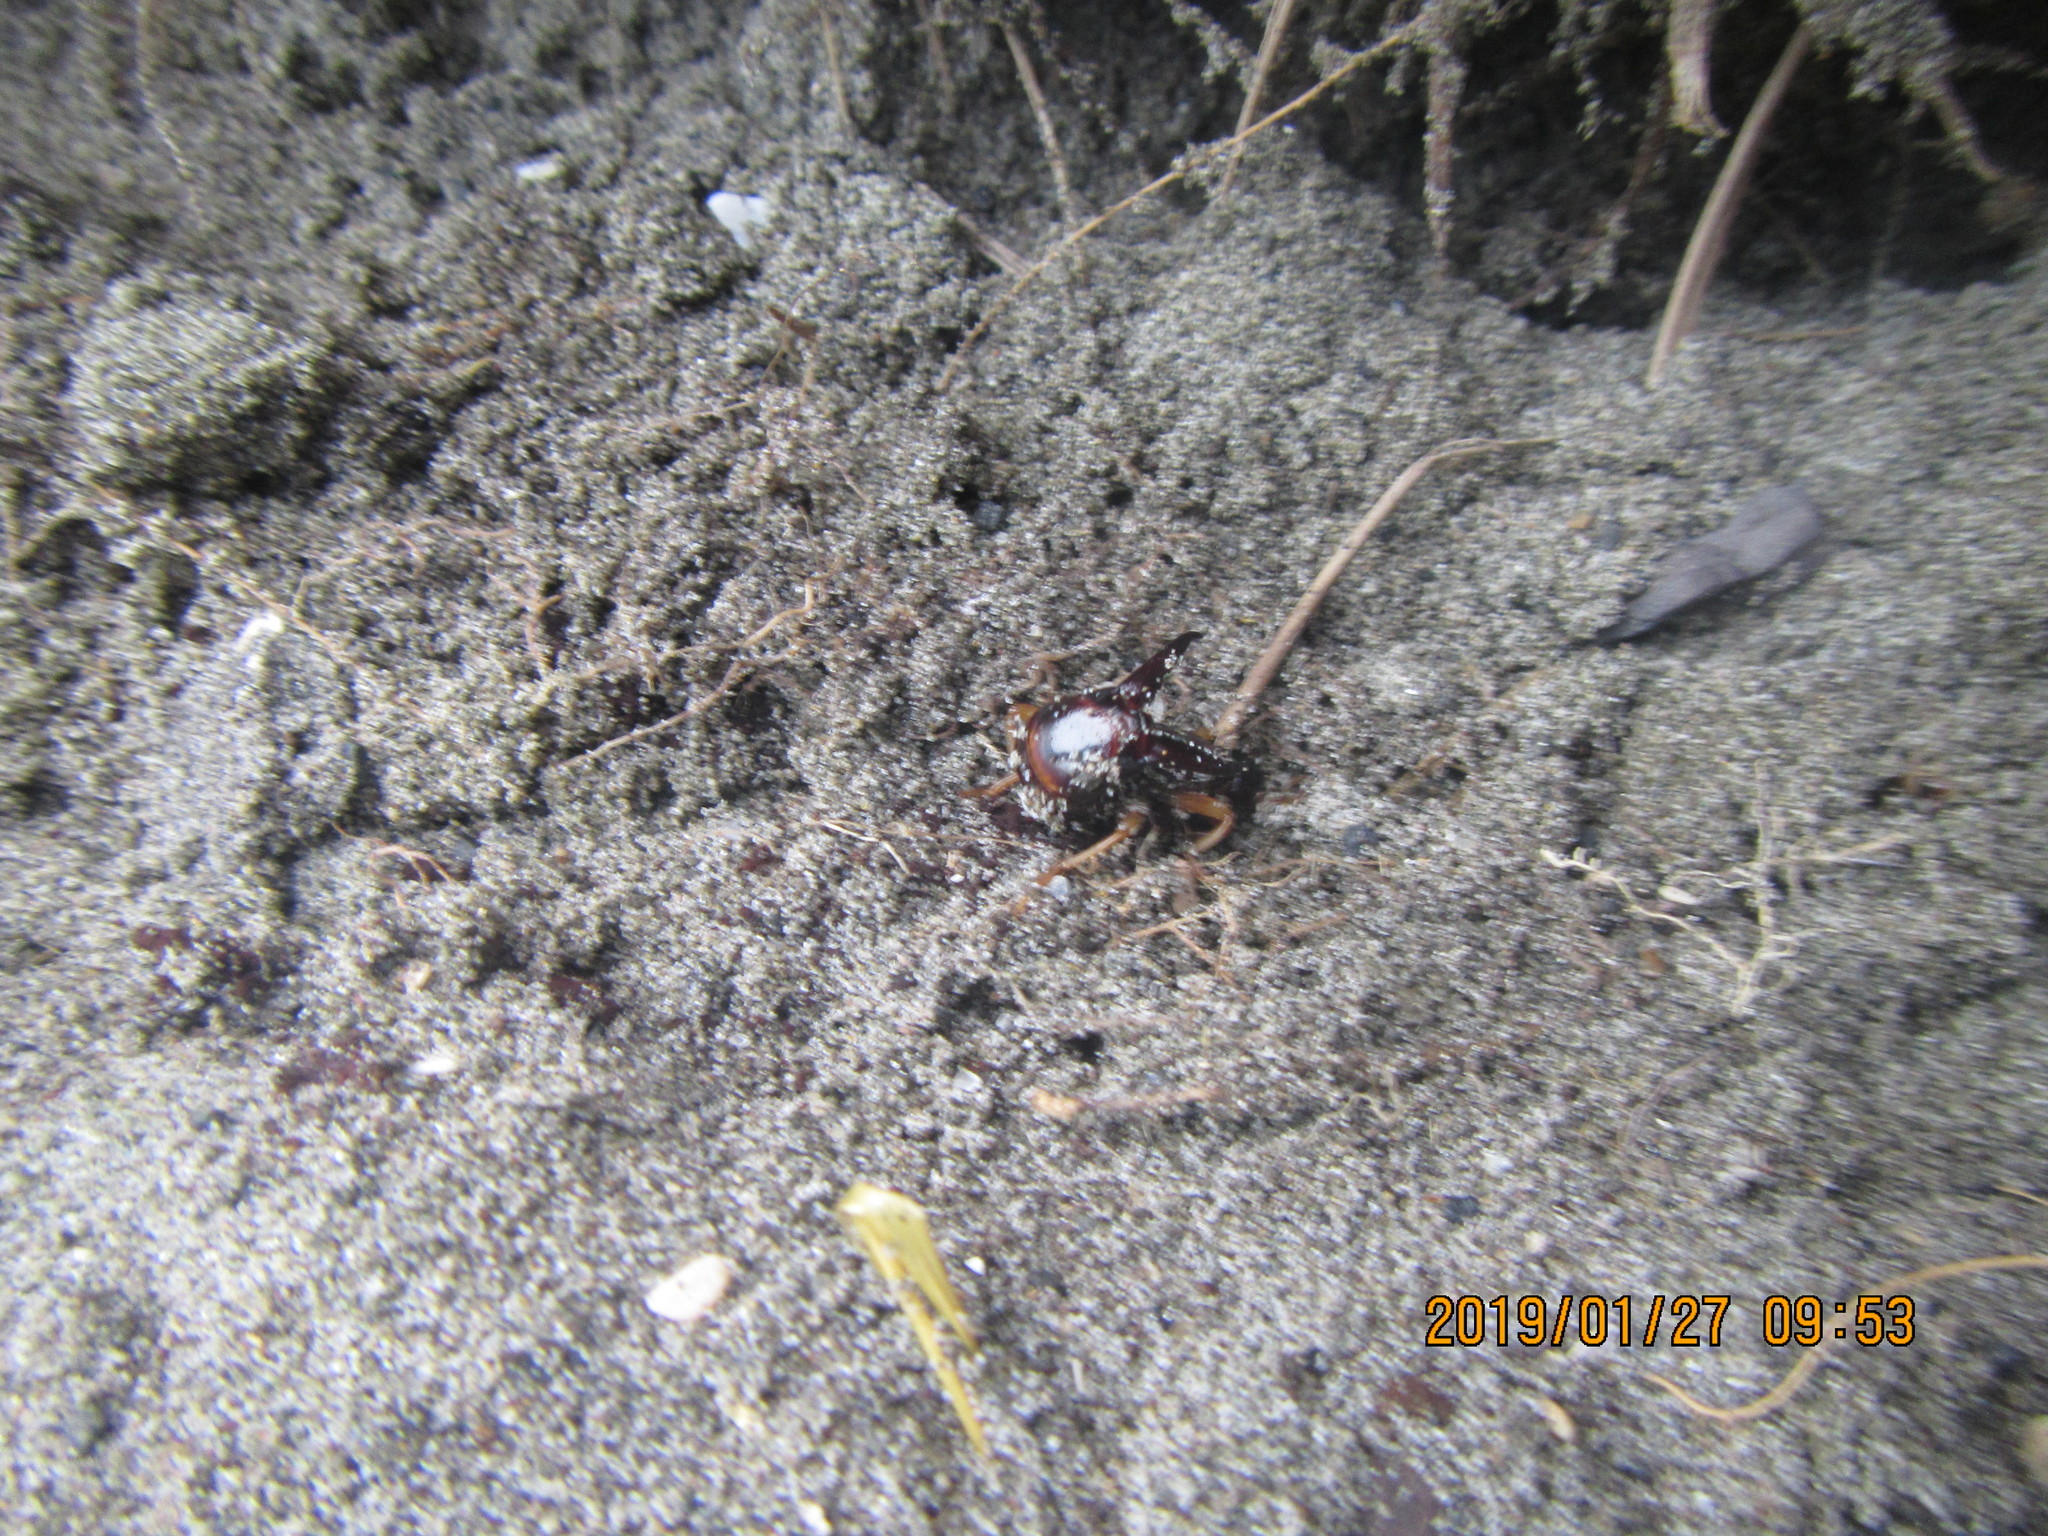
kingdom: Animalia
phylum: Arthropoda
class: Insecta
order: Dermaptera
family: Anisolabididae
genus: Anisolabis
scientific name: Anisolabis littorea
